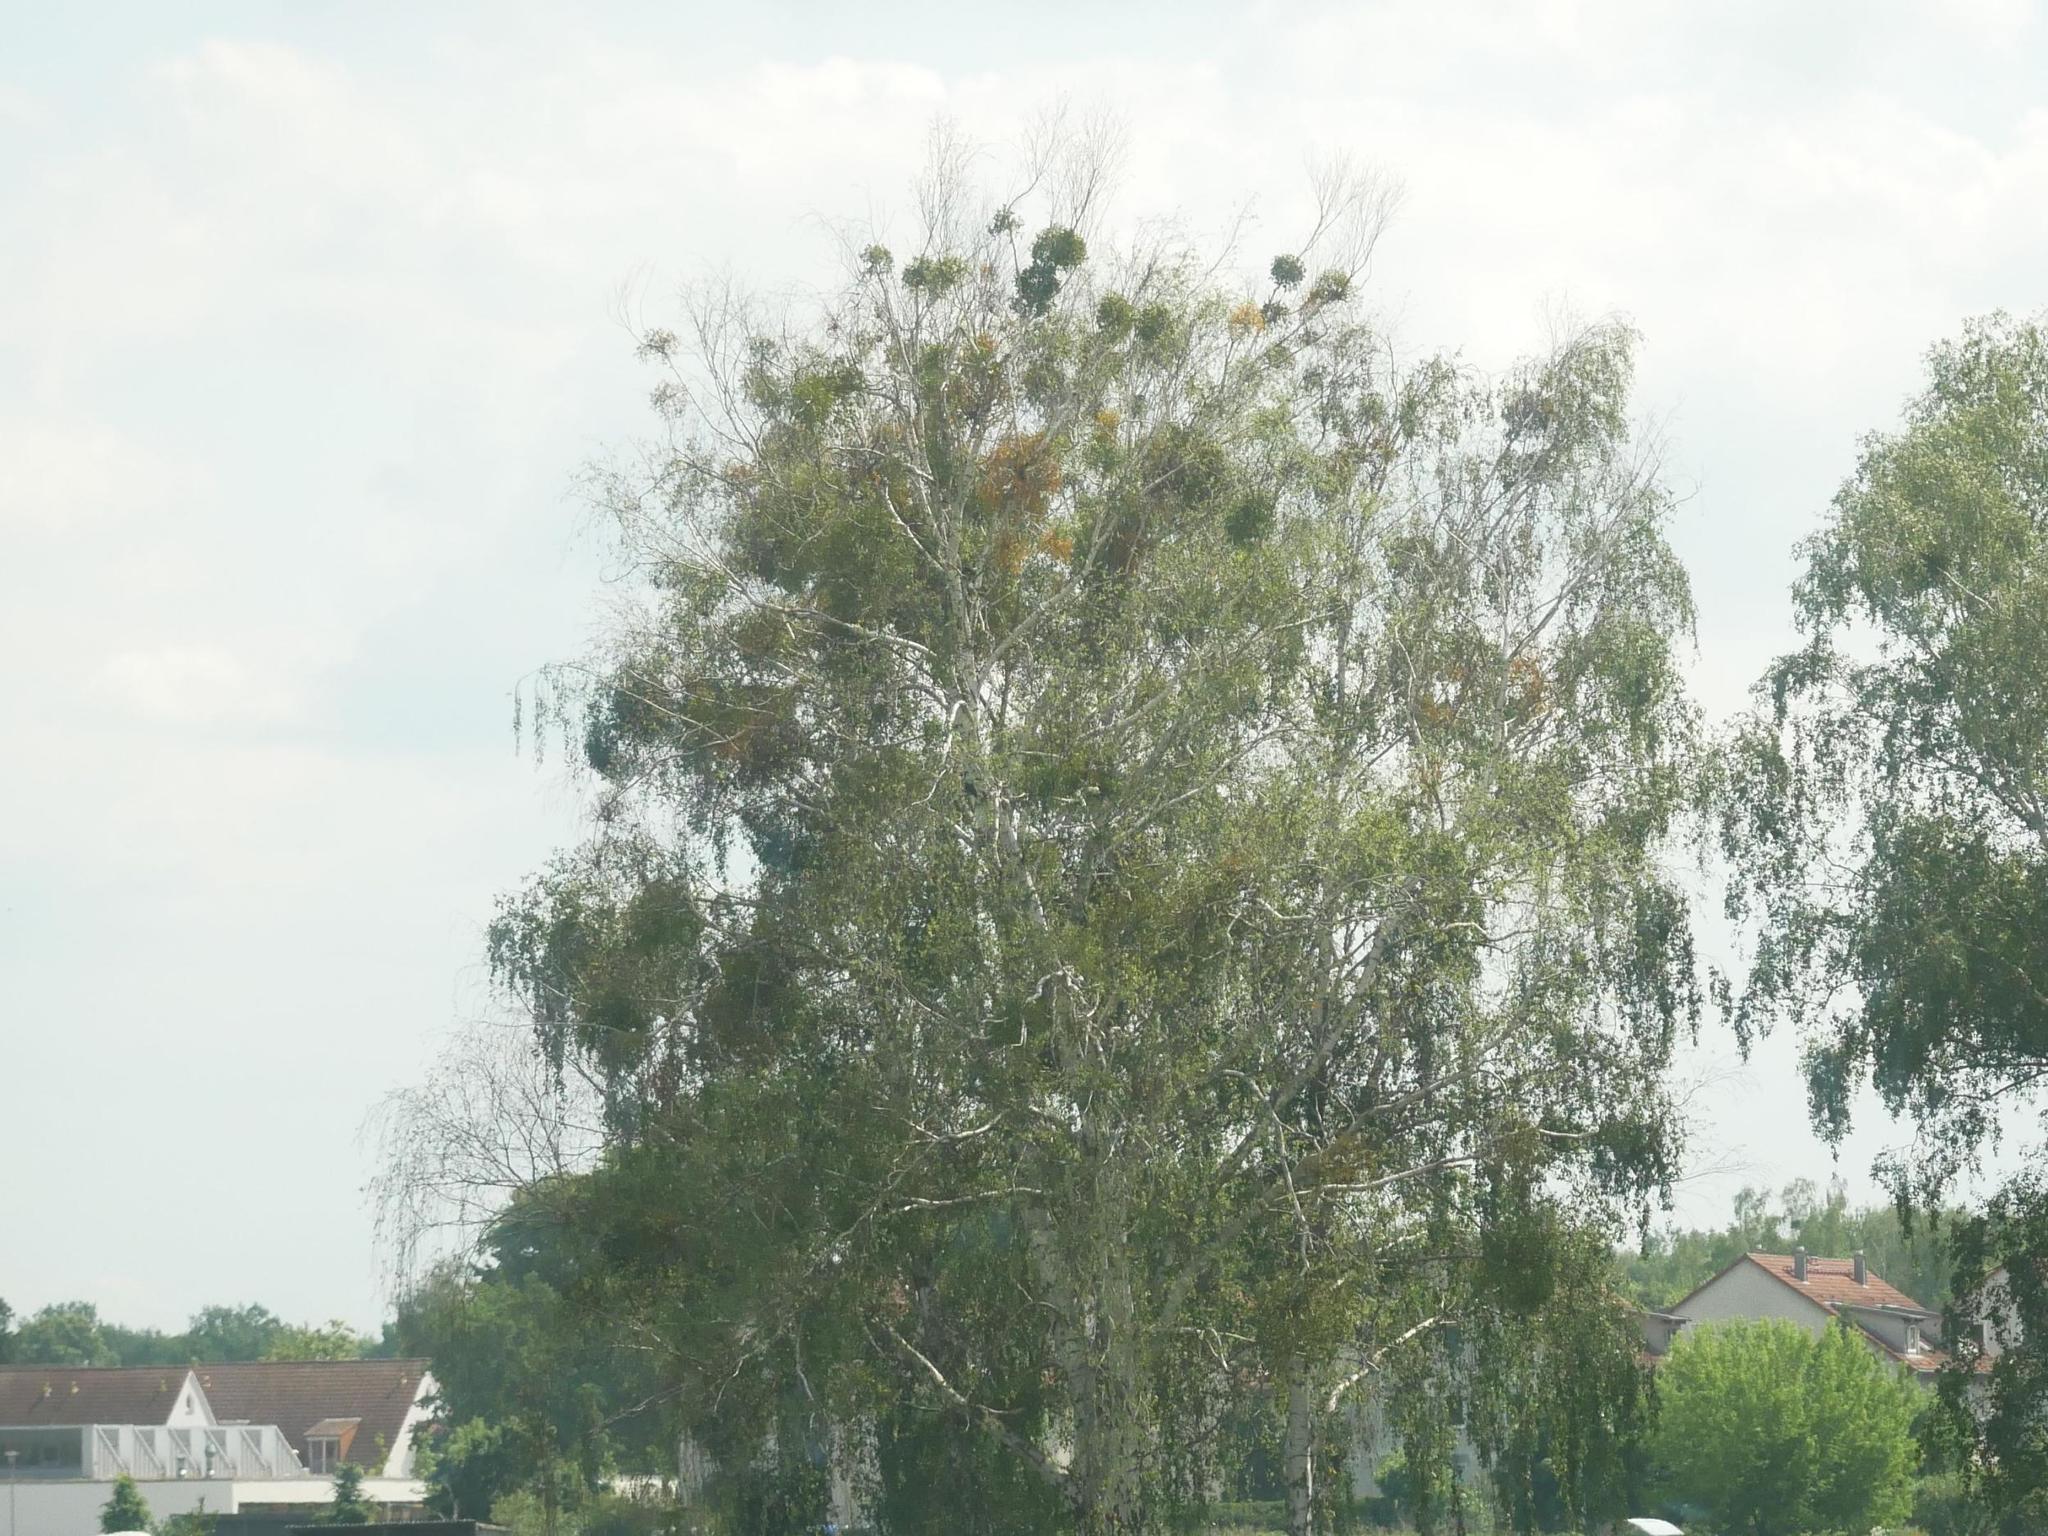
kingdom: Plantae
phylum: Tracheophyta
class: Magnoliopsida
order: Fagales
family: Betulaceae
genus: Betula
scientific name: Betula pendula
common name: Silver birch
